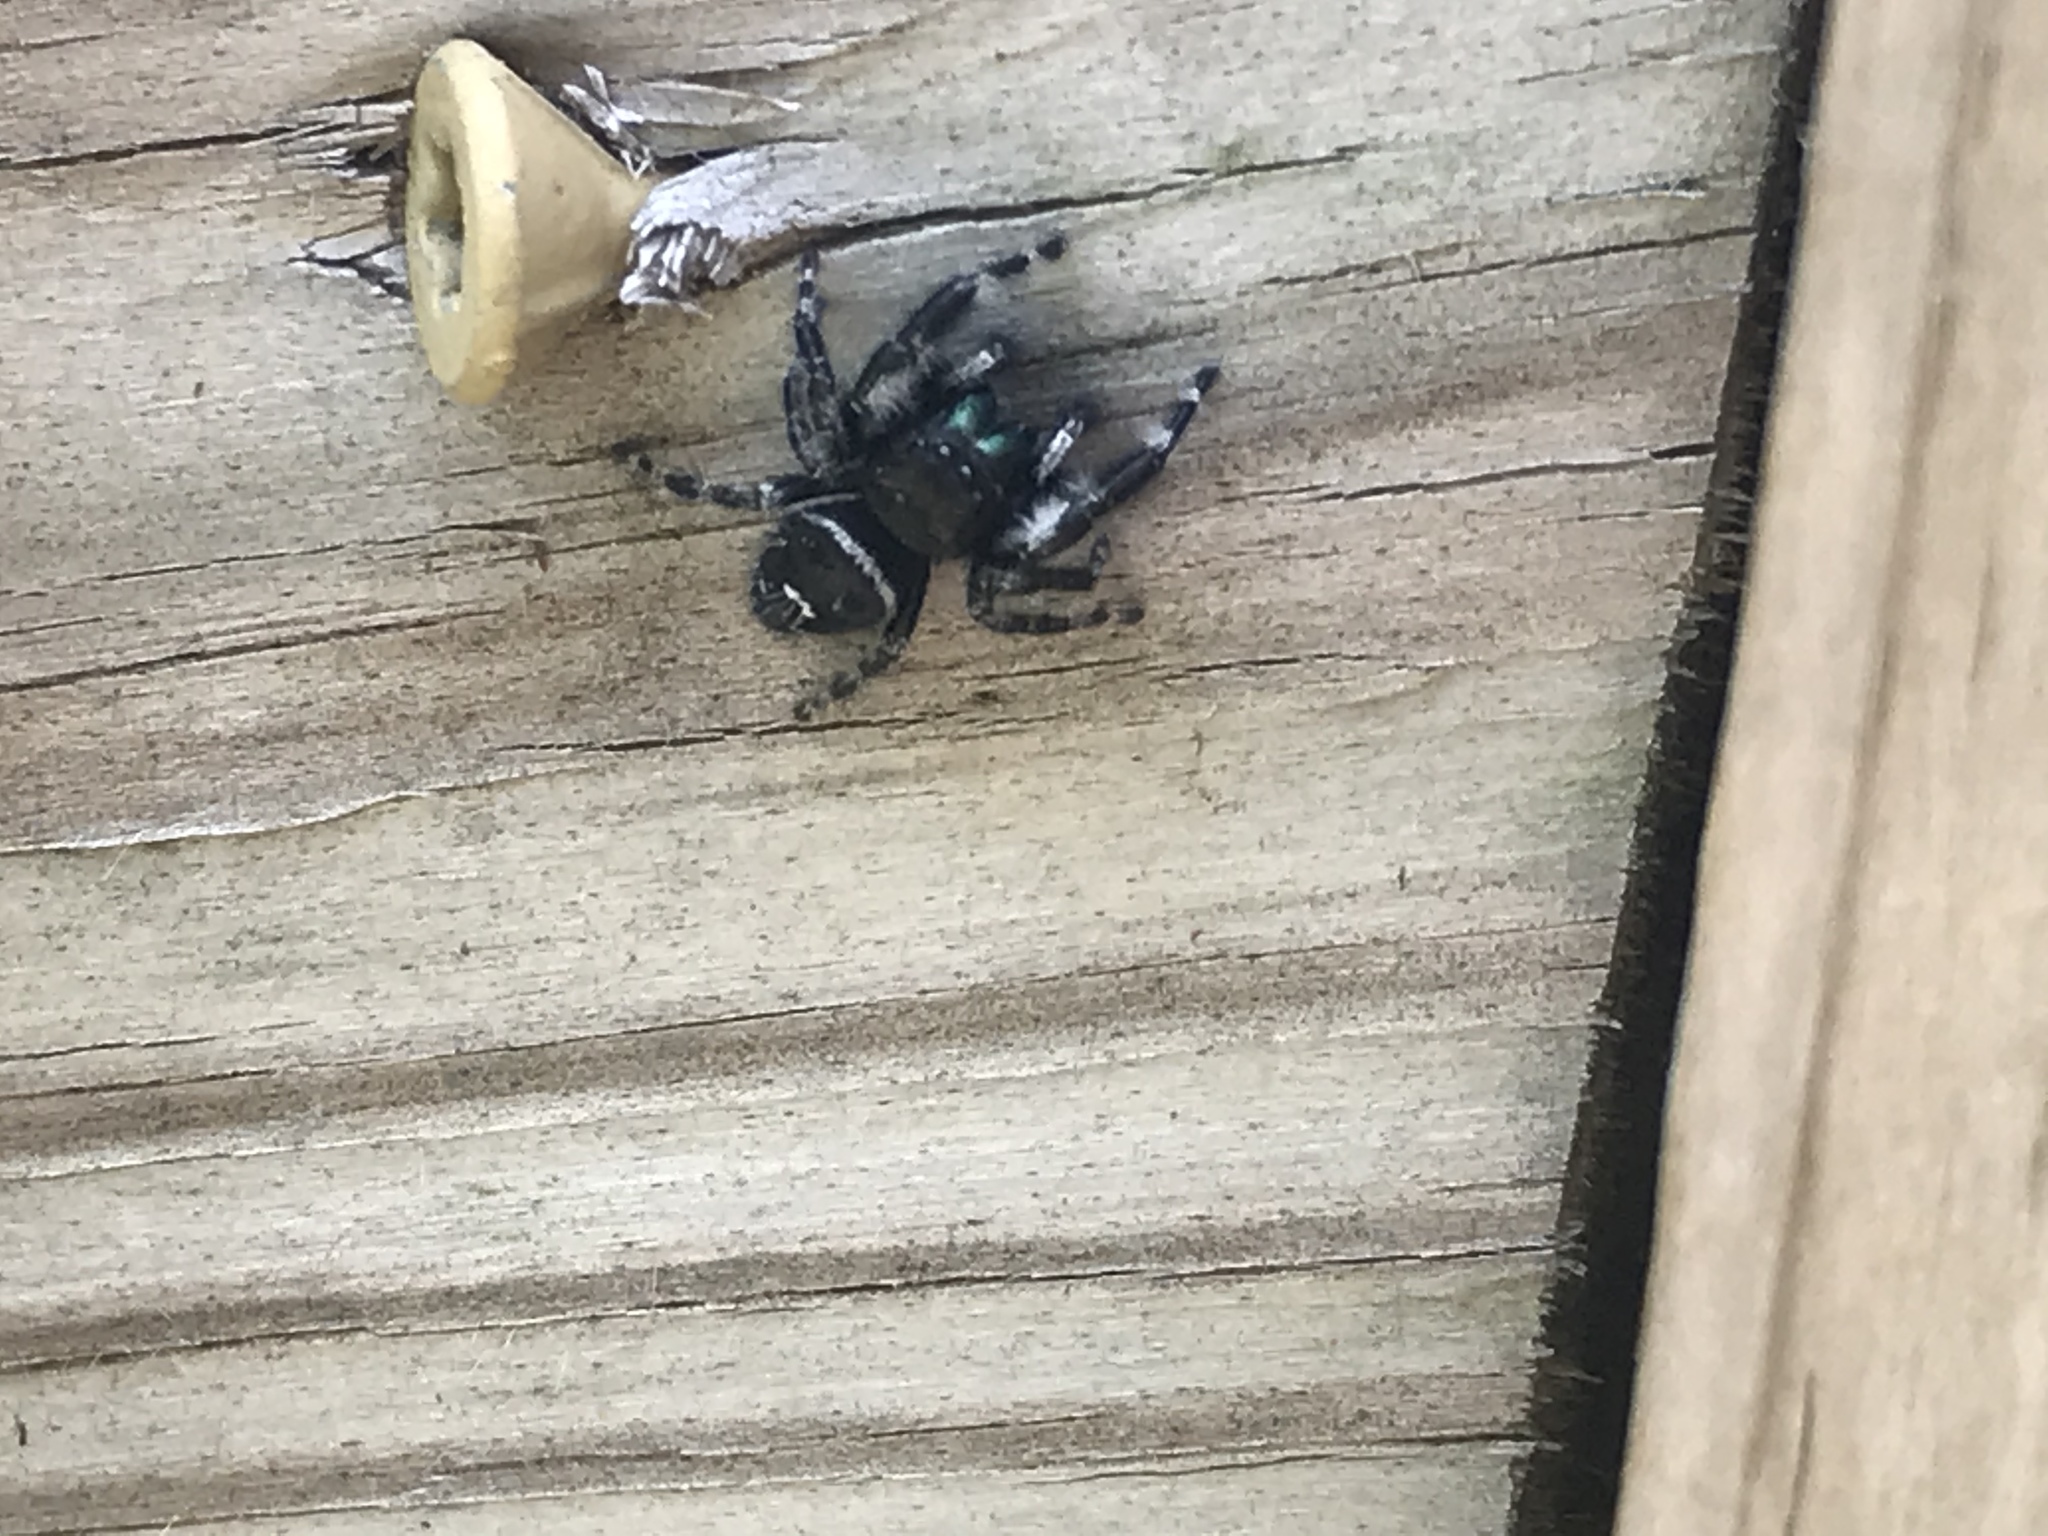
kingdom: Animalia
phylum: Arthropoda
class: Arachnida
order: Araneae
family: Salticidae
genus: Phidippus
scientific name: Phidippus audax
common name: Bold jumper
